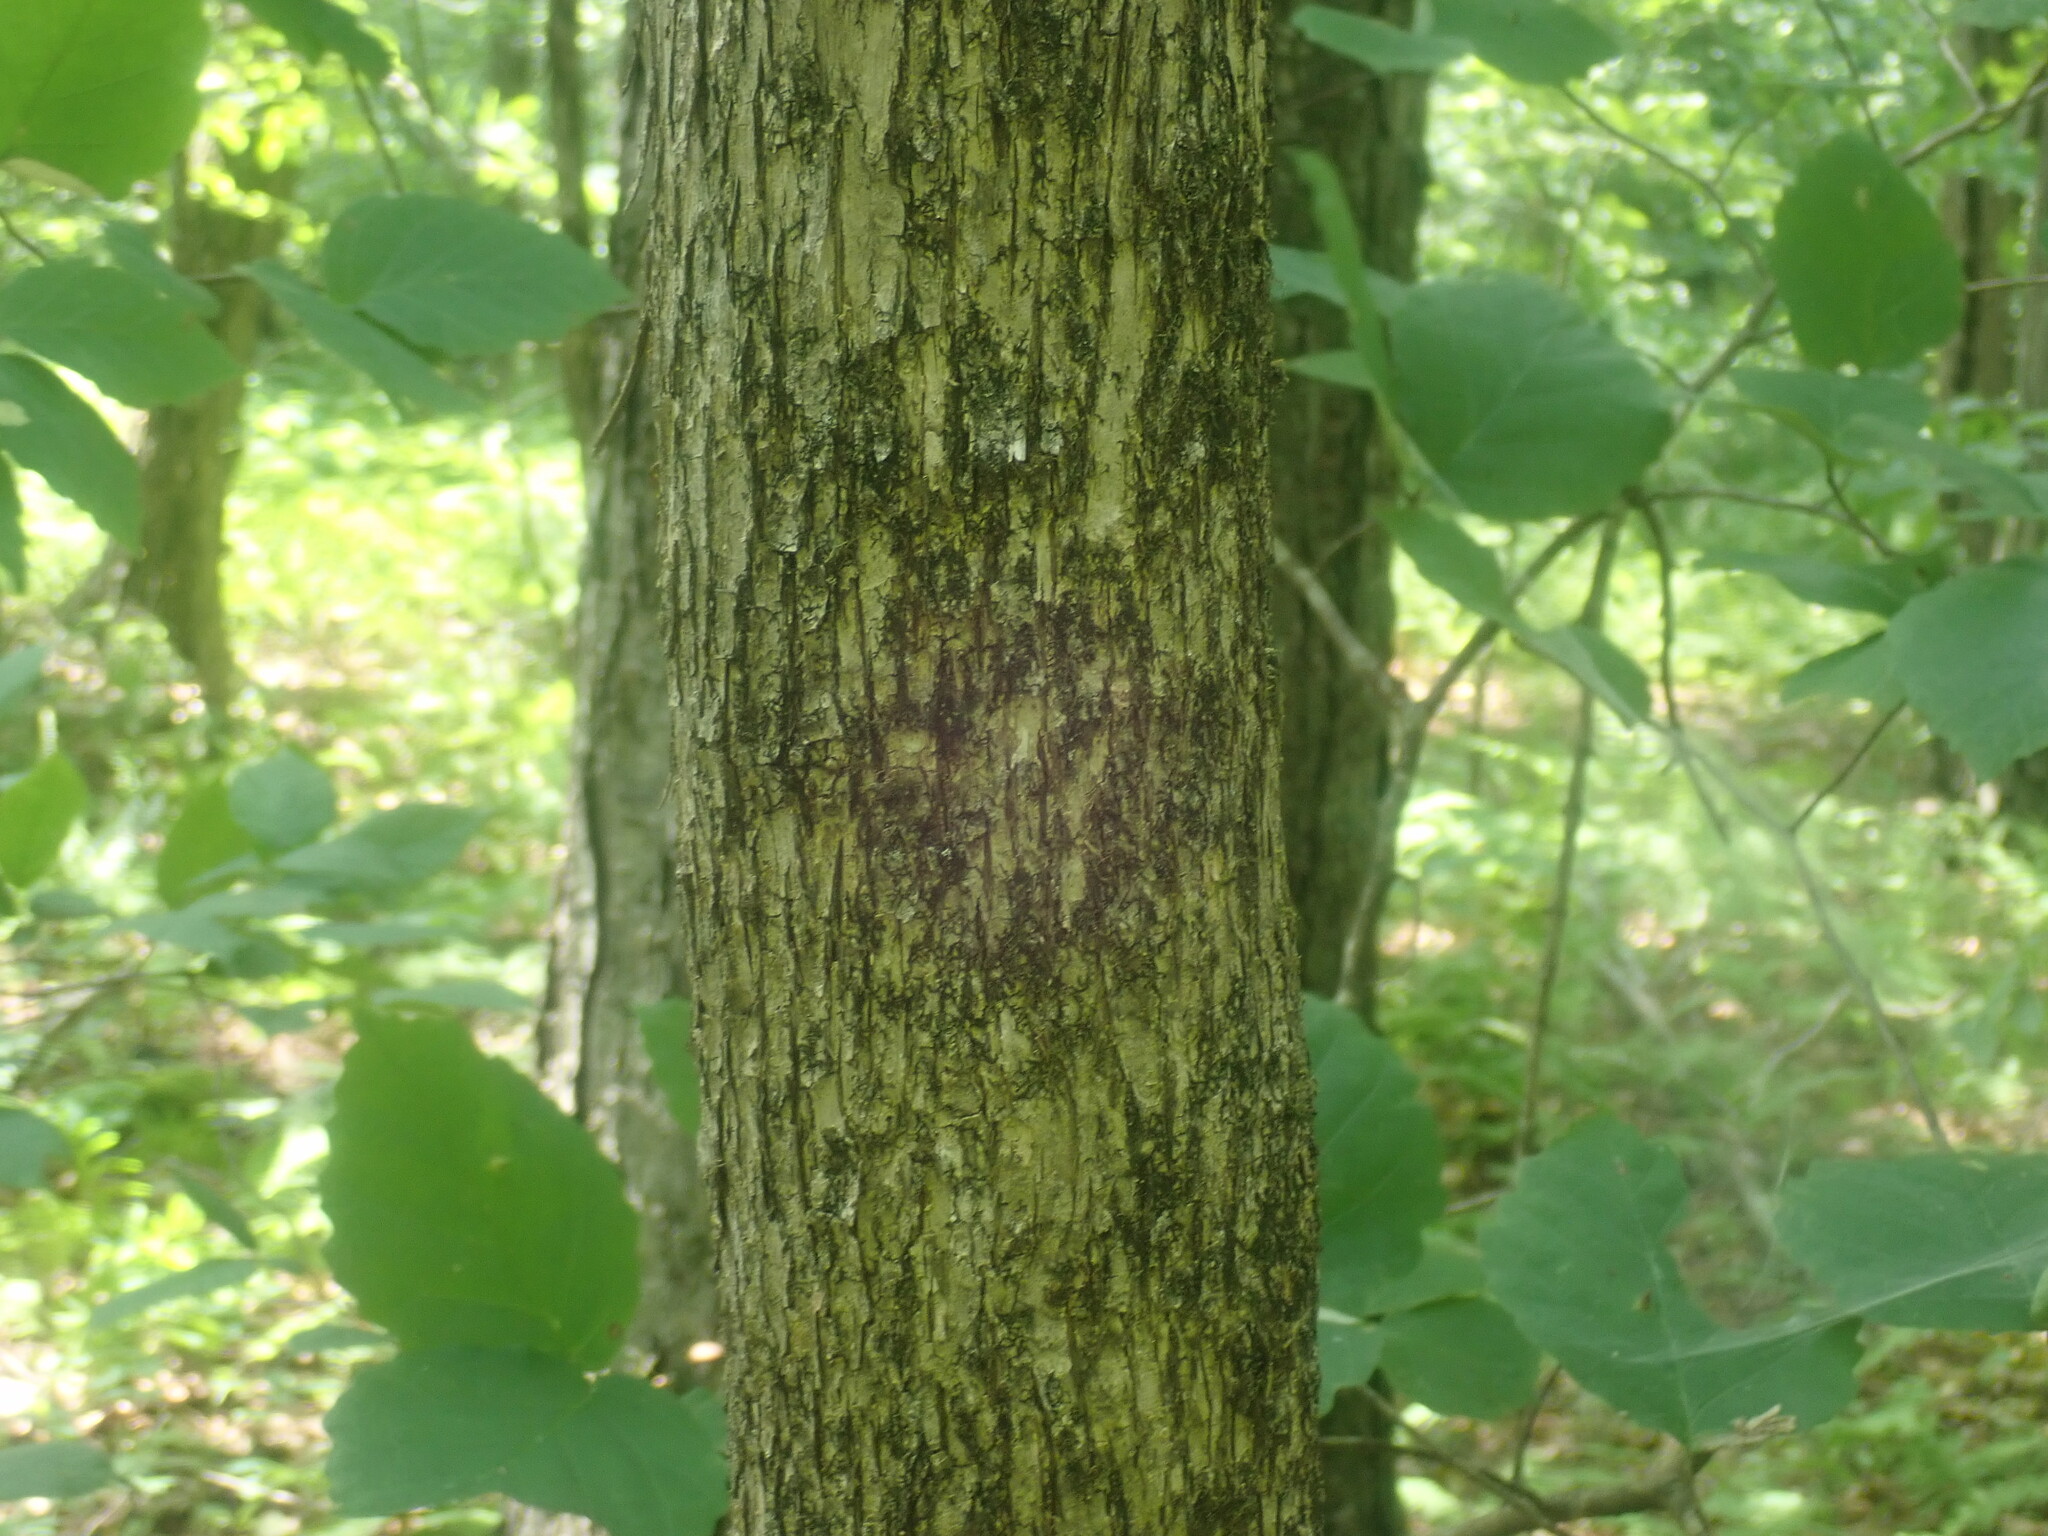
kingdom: Plantae
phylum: Tracheophyta
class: Magnoliopsida
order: Fagales
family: Betulaceae
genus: Ostrya
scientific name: Ostrya virginiana
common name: Ironwood
